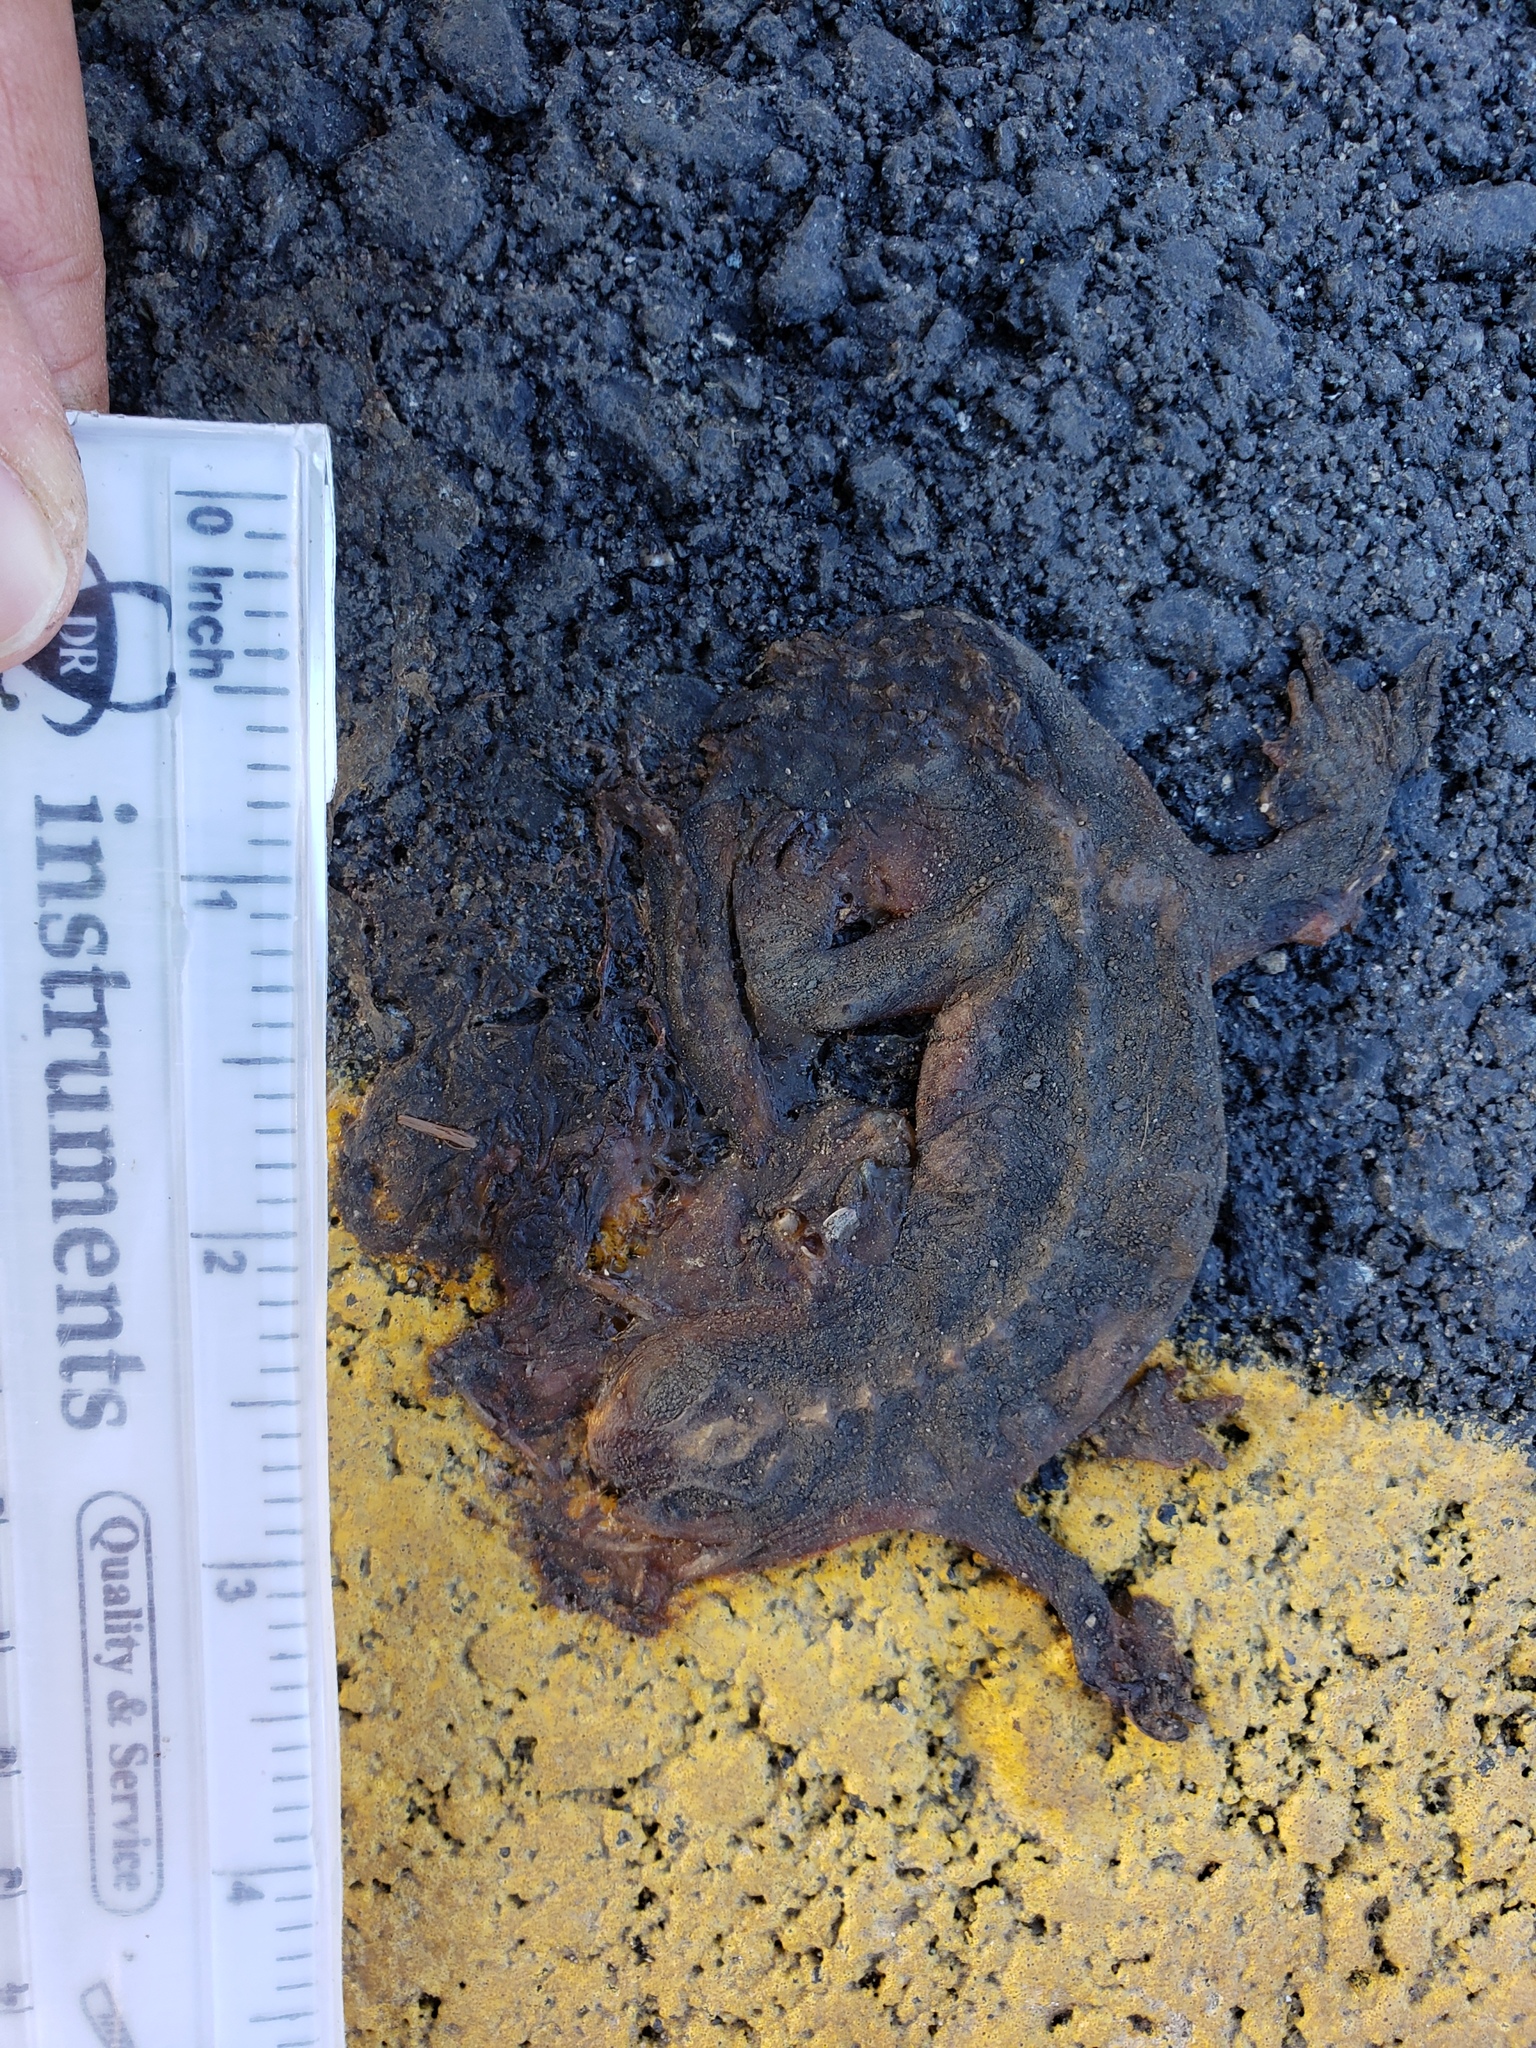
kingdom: Animalia
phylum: Chordata
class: Amphibia
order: Caudata
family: Salamandridae
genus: Taricha
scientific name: Taricha
